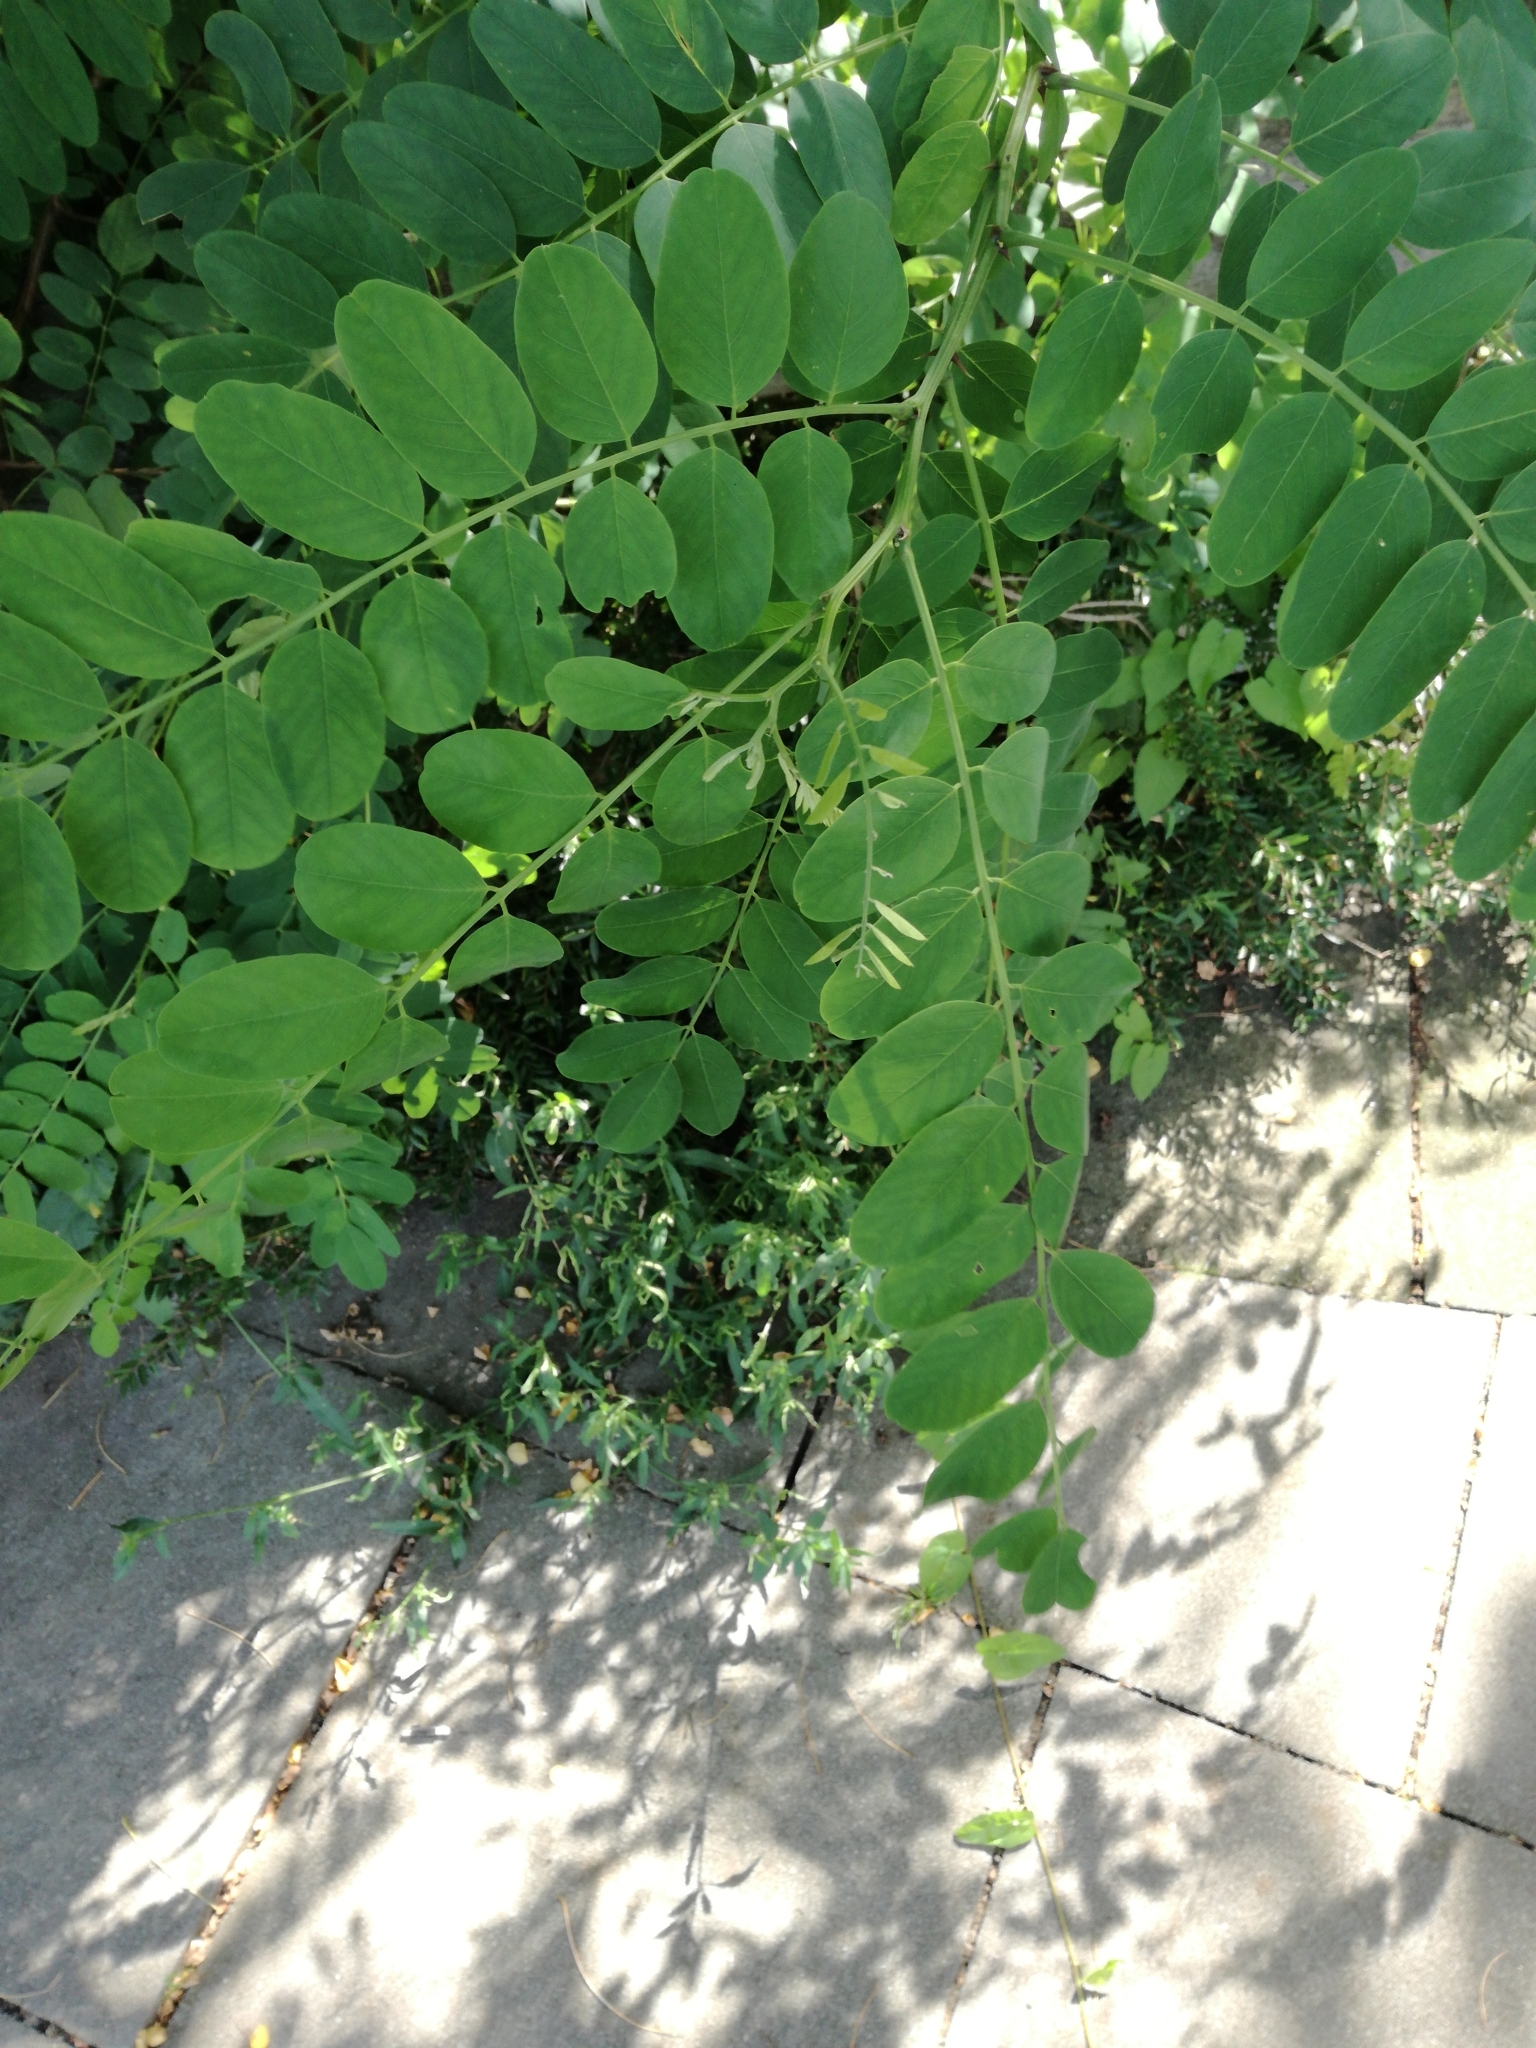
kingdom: Plantae
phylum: Tracheophyta
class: Magnoliopsida
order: Fabales
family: Fabaceae
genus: Robinia
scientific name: Robinia pseudoacacia
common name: Black locust
